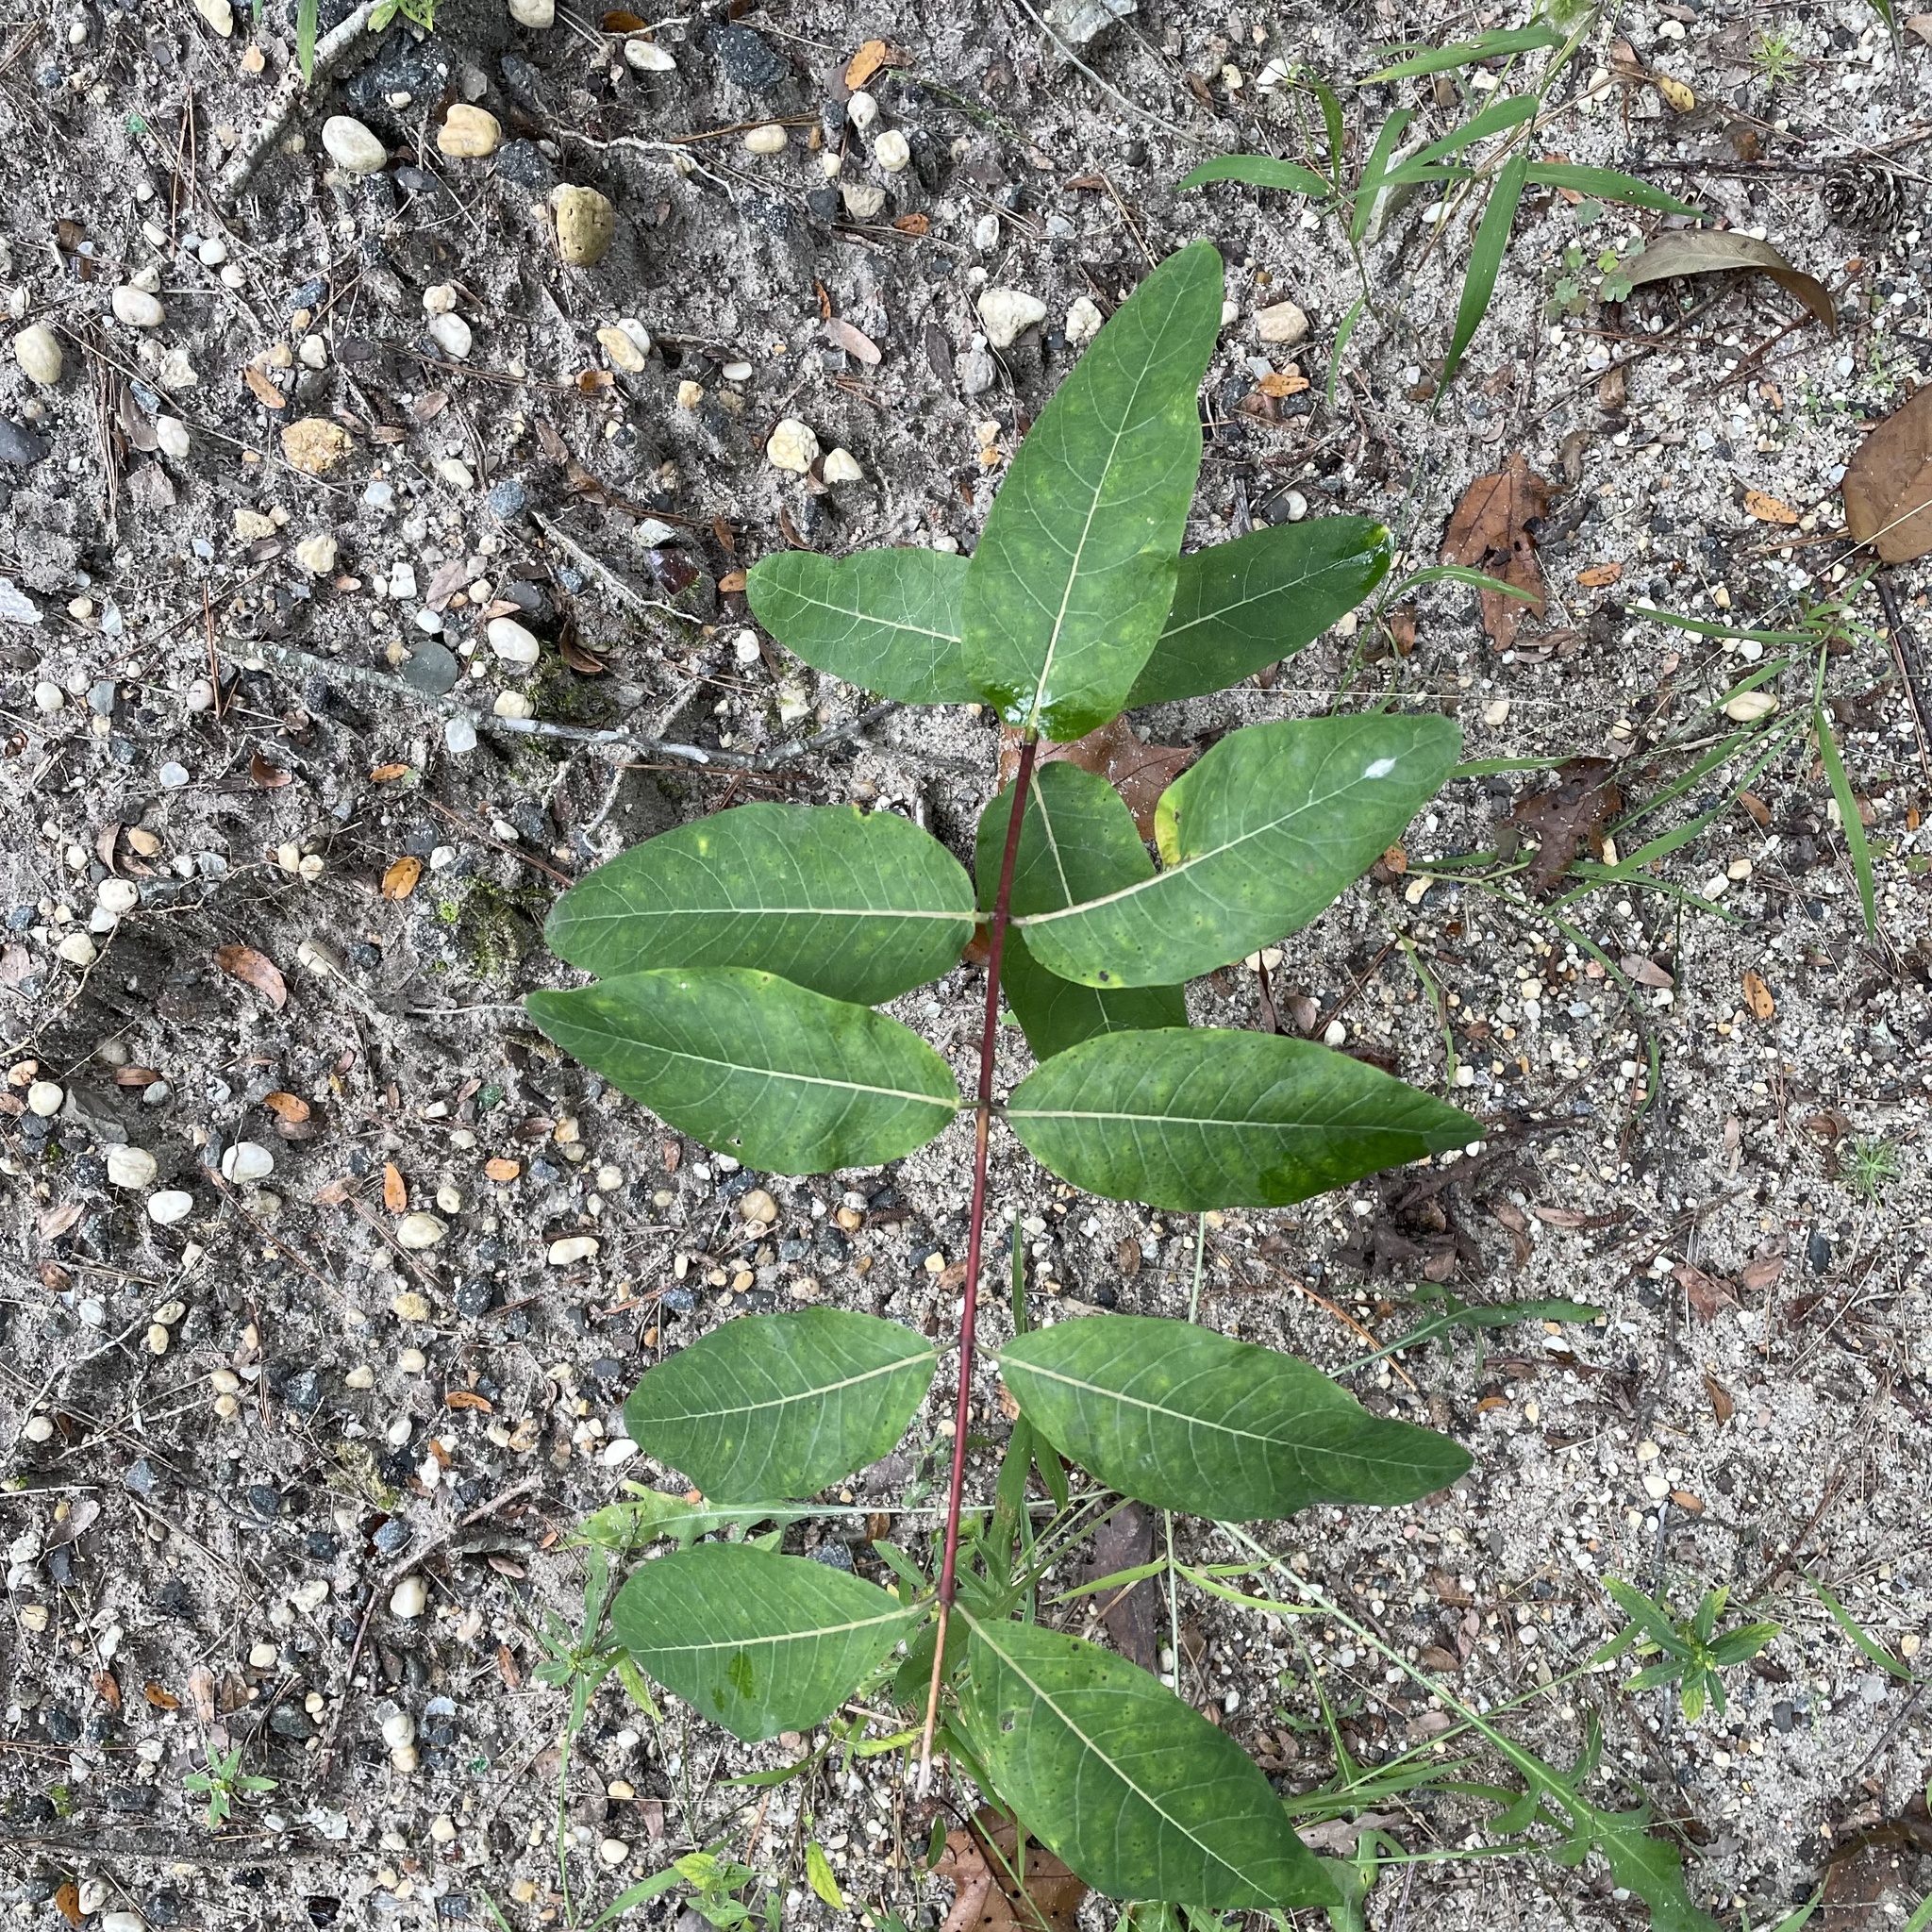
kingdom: Plantae
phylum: Tracheophyta
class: Magnoliopsida
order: Gentianales
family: Apocynaceae
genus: Apocynum
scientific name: Apocynum cannabinum
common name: Hemp dogbane
